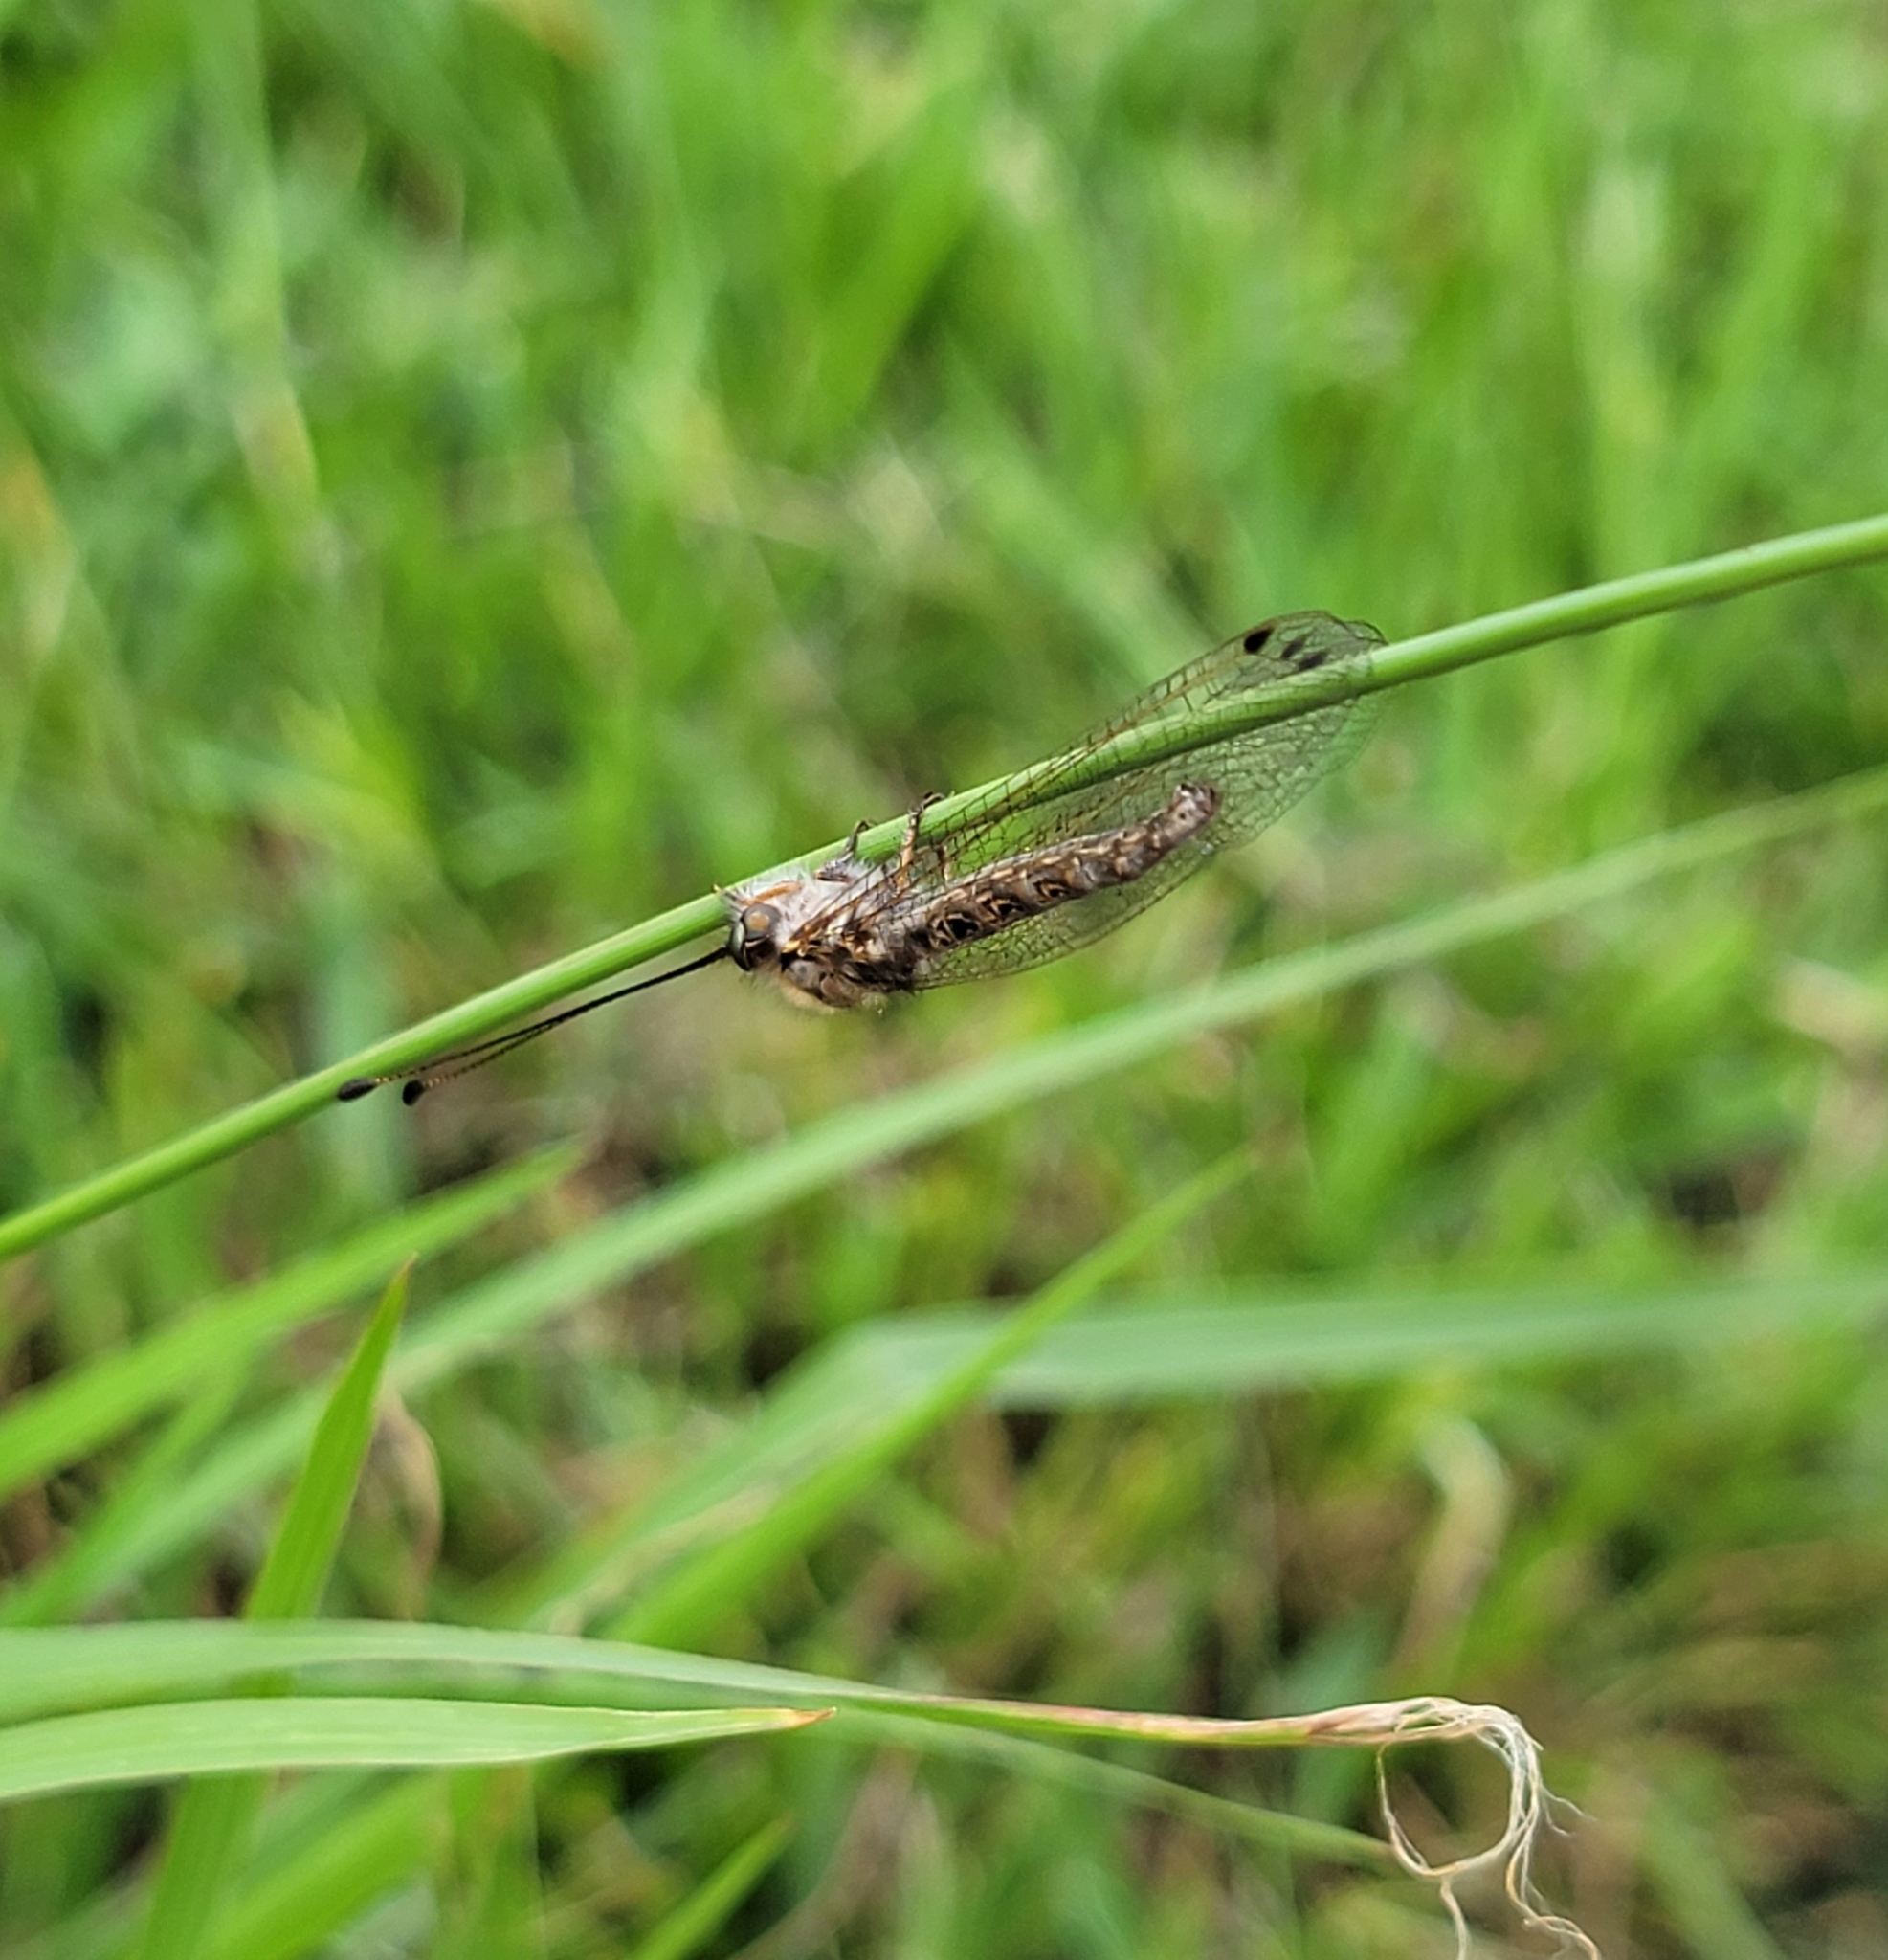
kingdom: Animalia
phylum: Arthropoda
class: Insecta
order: Neuroptera
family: Ascalaphidae
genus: Ululodes
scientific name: Ululodes macleayanus
